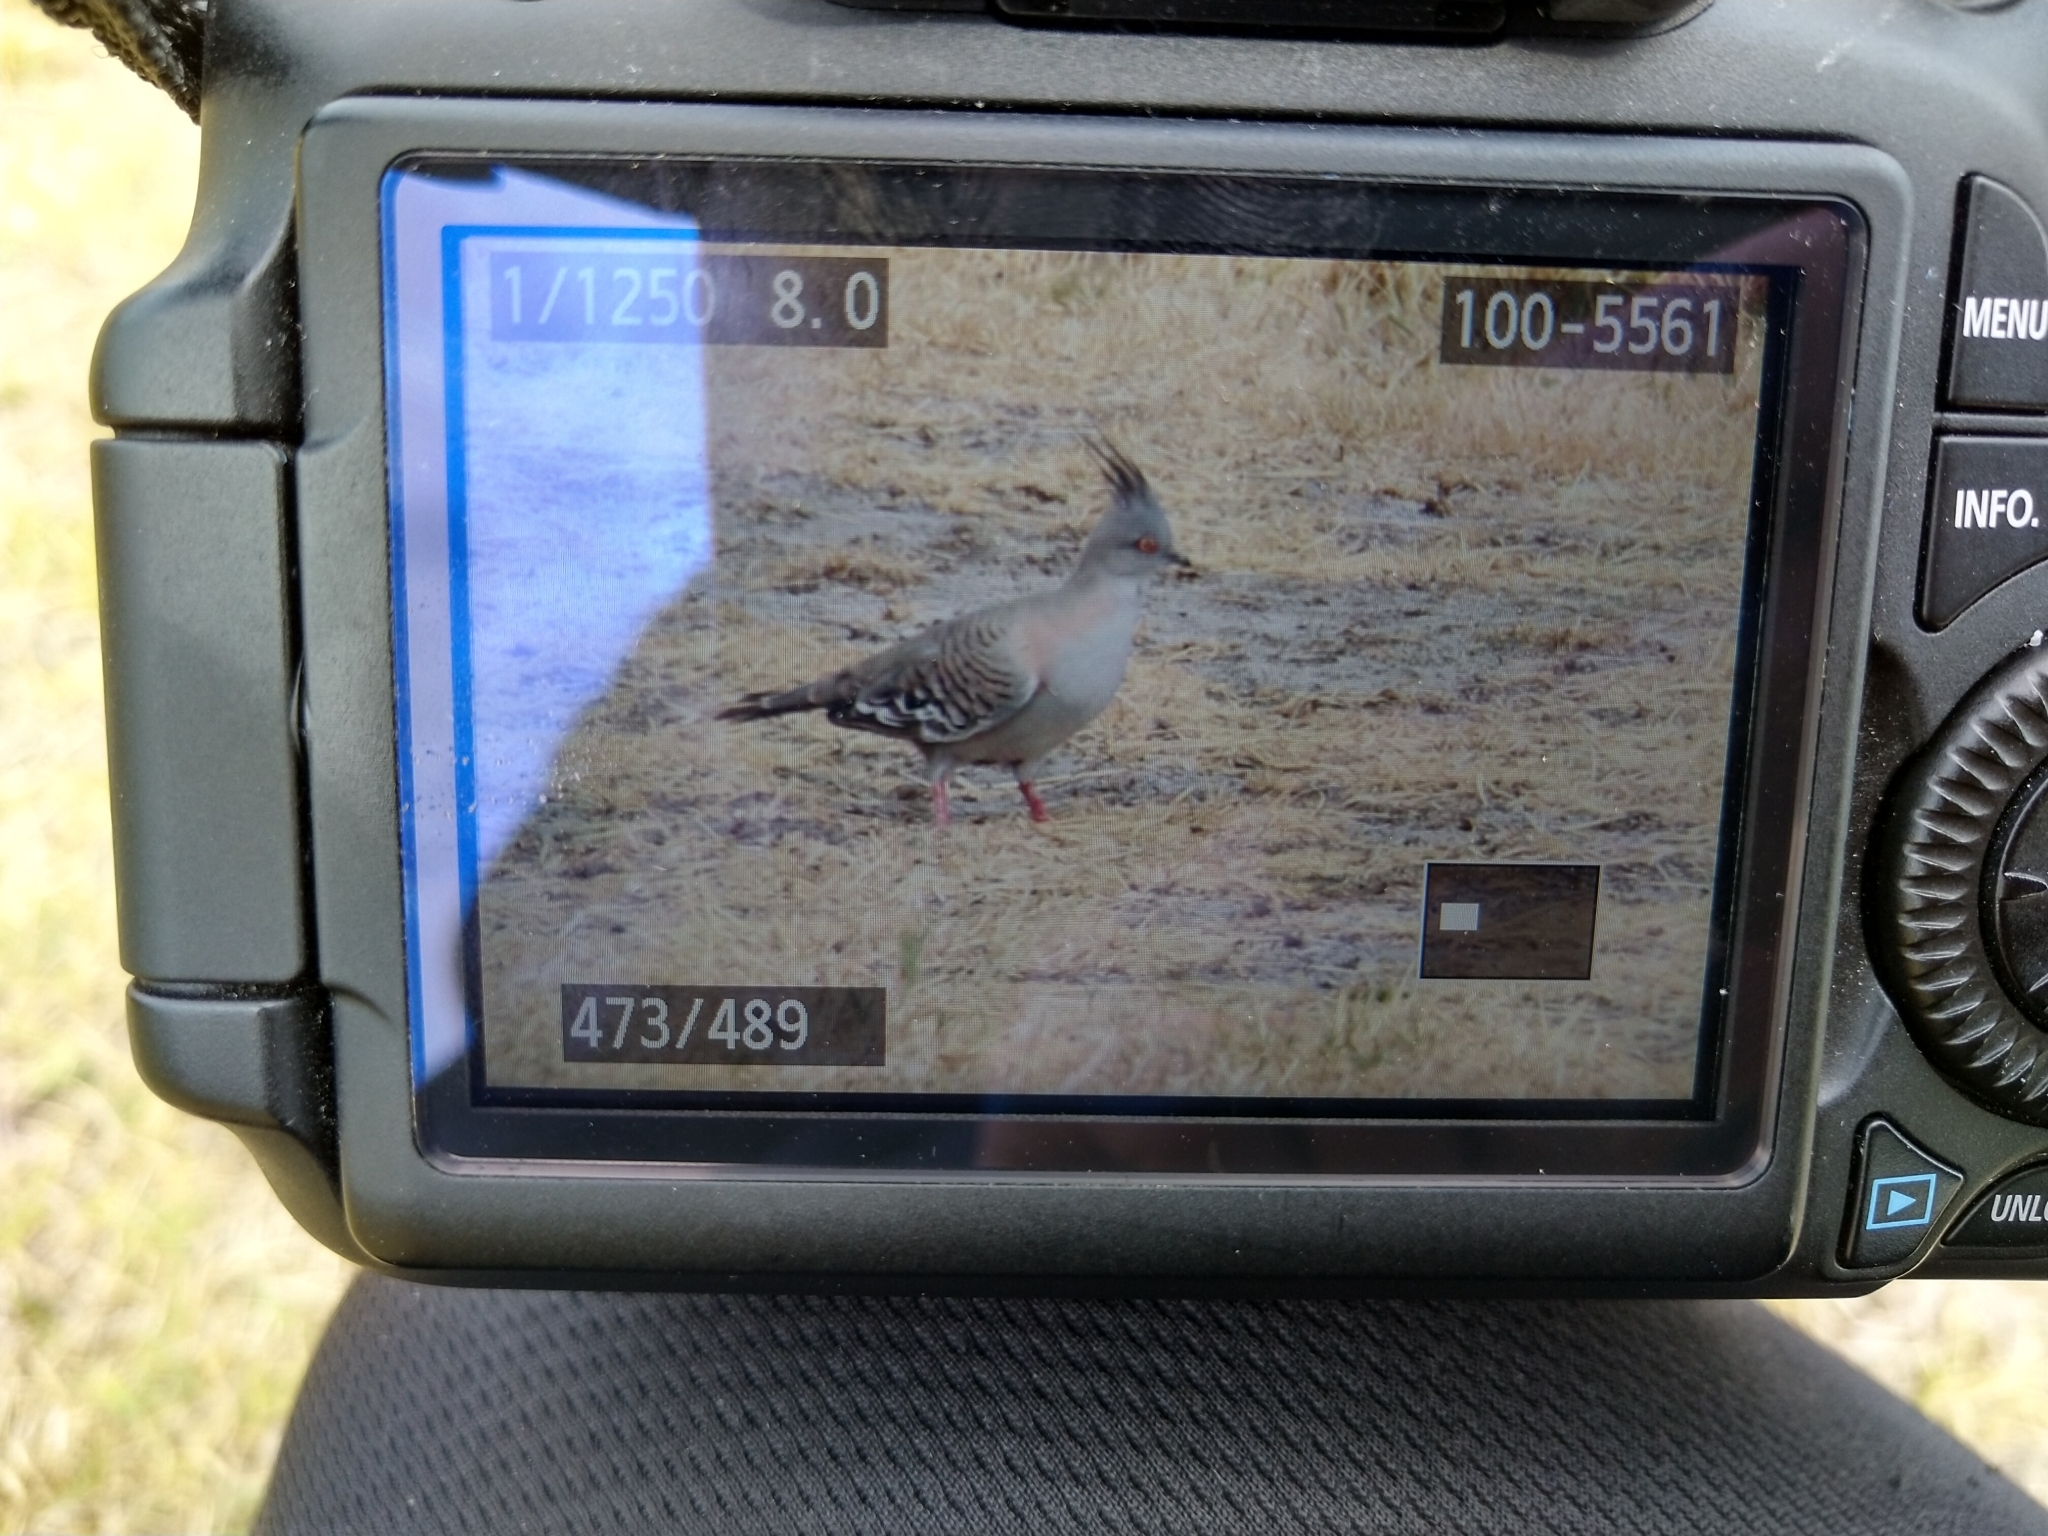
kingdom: Animalia
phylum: Chordata
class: Aves
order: Columbiformes
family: Columbidae
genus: Ocyphaps
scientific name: Ocyphaps lophotes
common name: Crested pigeon
